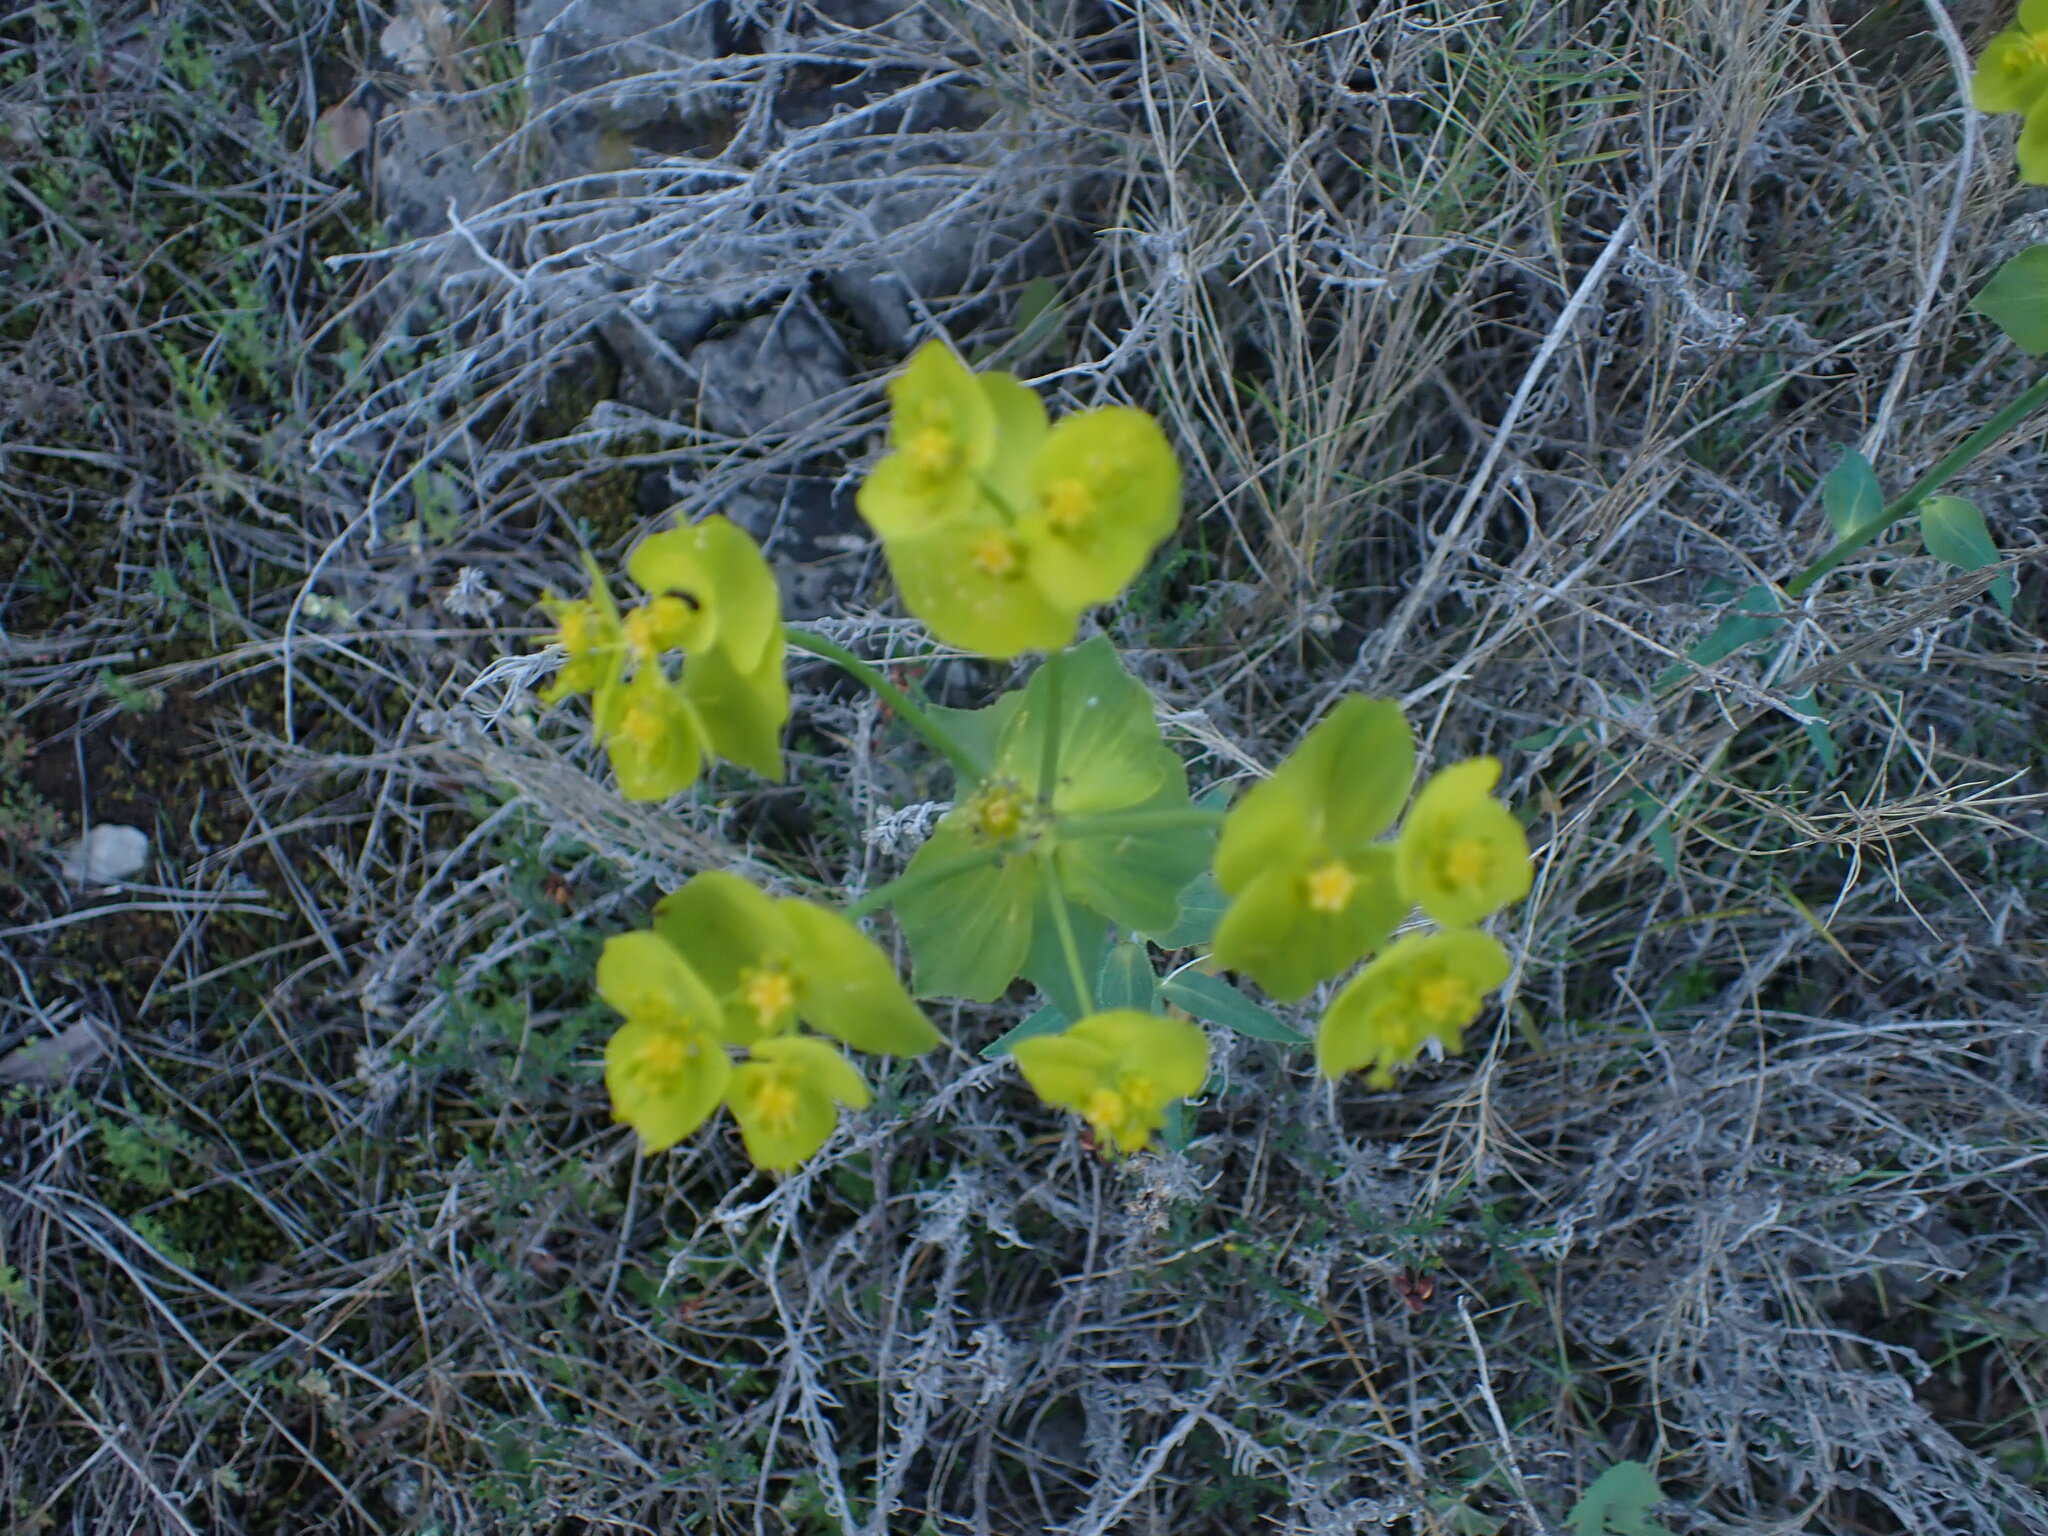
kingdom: Plantae
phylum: Tracheophyta
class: Magnoliopsida
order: Malpighiales
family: Euphorbiaceae
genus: Euphorbia
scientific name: Euphorbia serrata
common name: Serrate spurge
